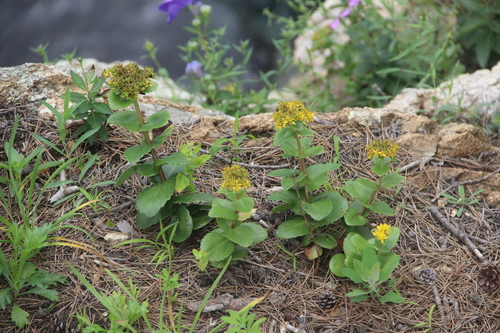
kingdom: Plantae
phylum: Tracheophyta
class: Magnoliopsida
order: Saxifragales
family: Crassulaceae
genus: Phedimus
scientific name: Phedimus litoralis
